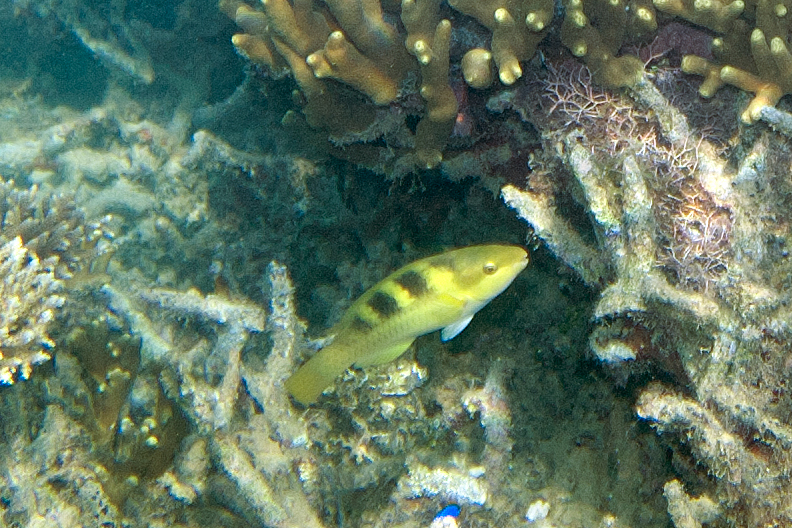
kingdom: Animalia
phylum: Chordata
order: Perciformes
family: Scaridae
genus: Scarus
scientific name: Scarus dimidiatus
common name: Yellowbarred parrotfish
